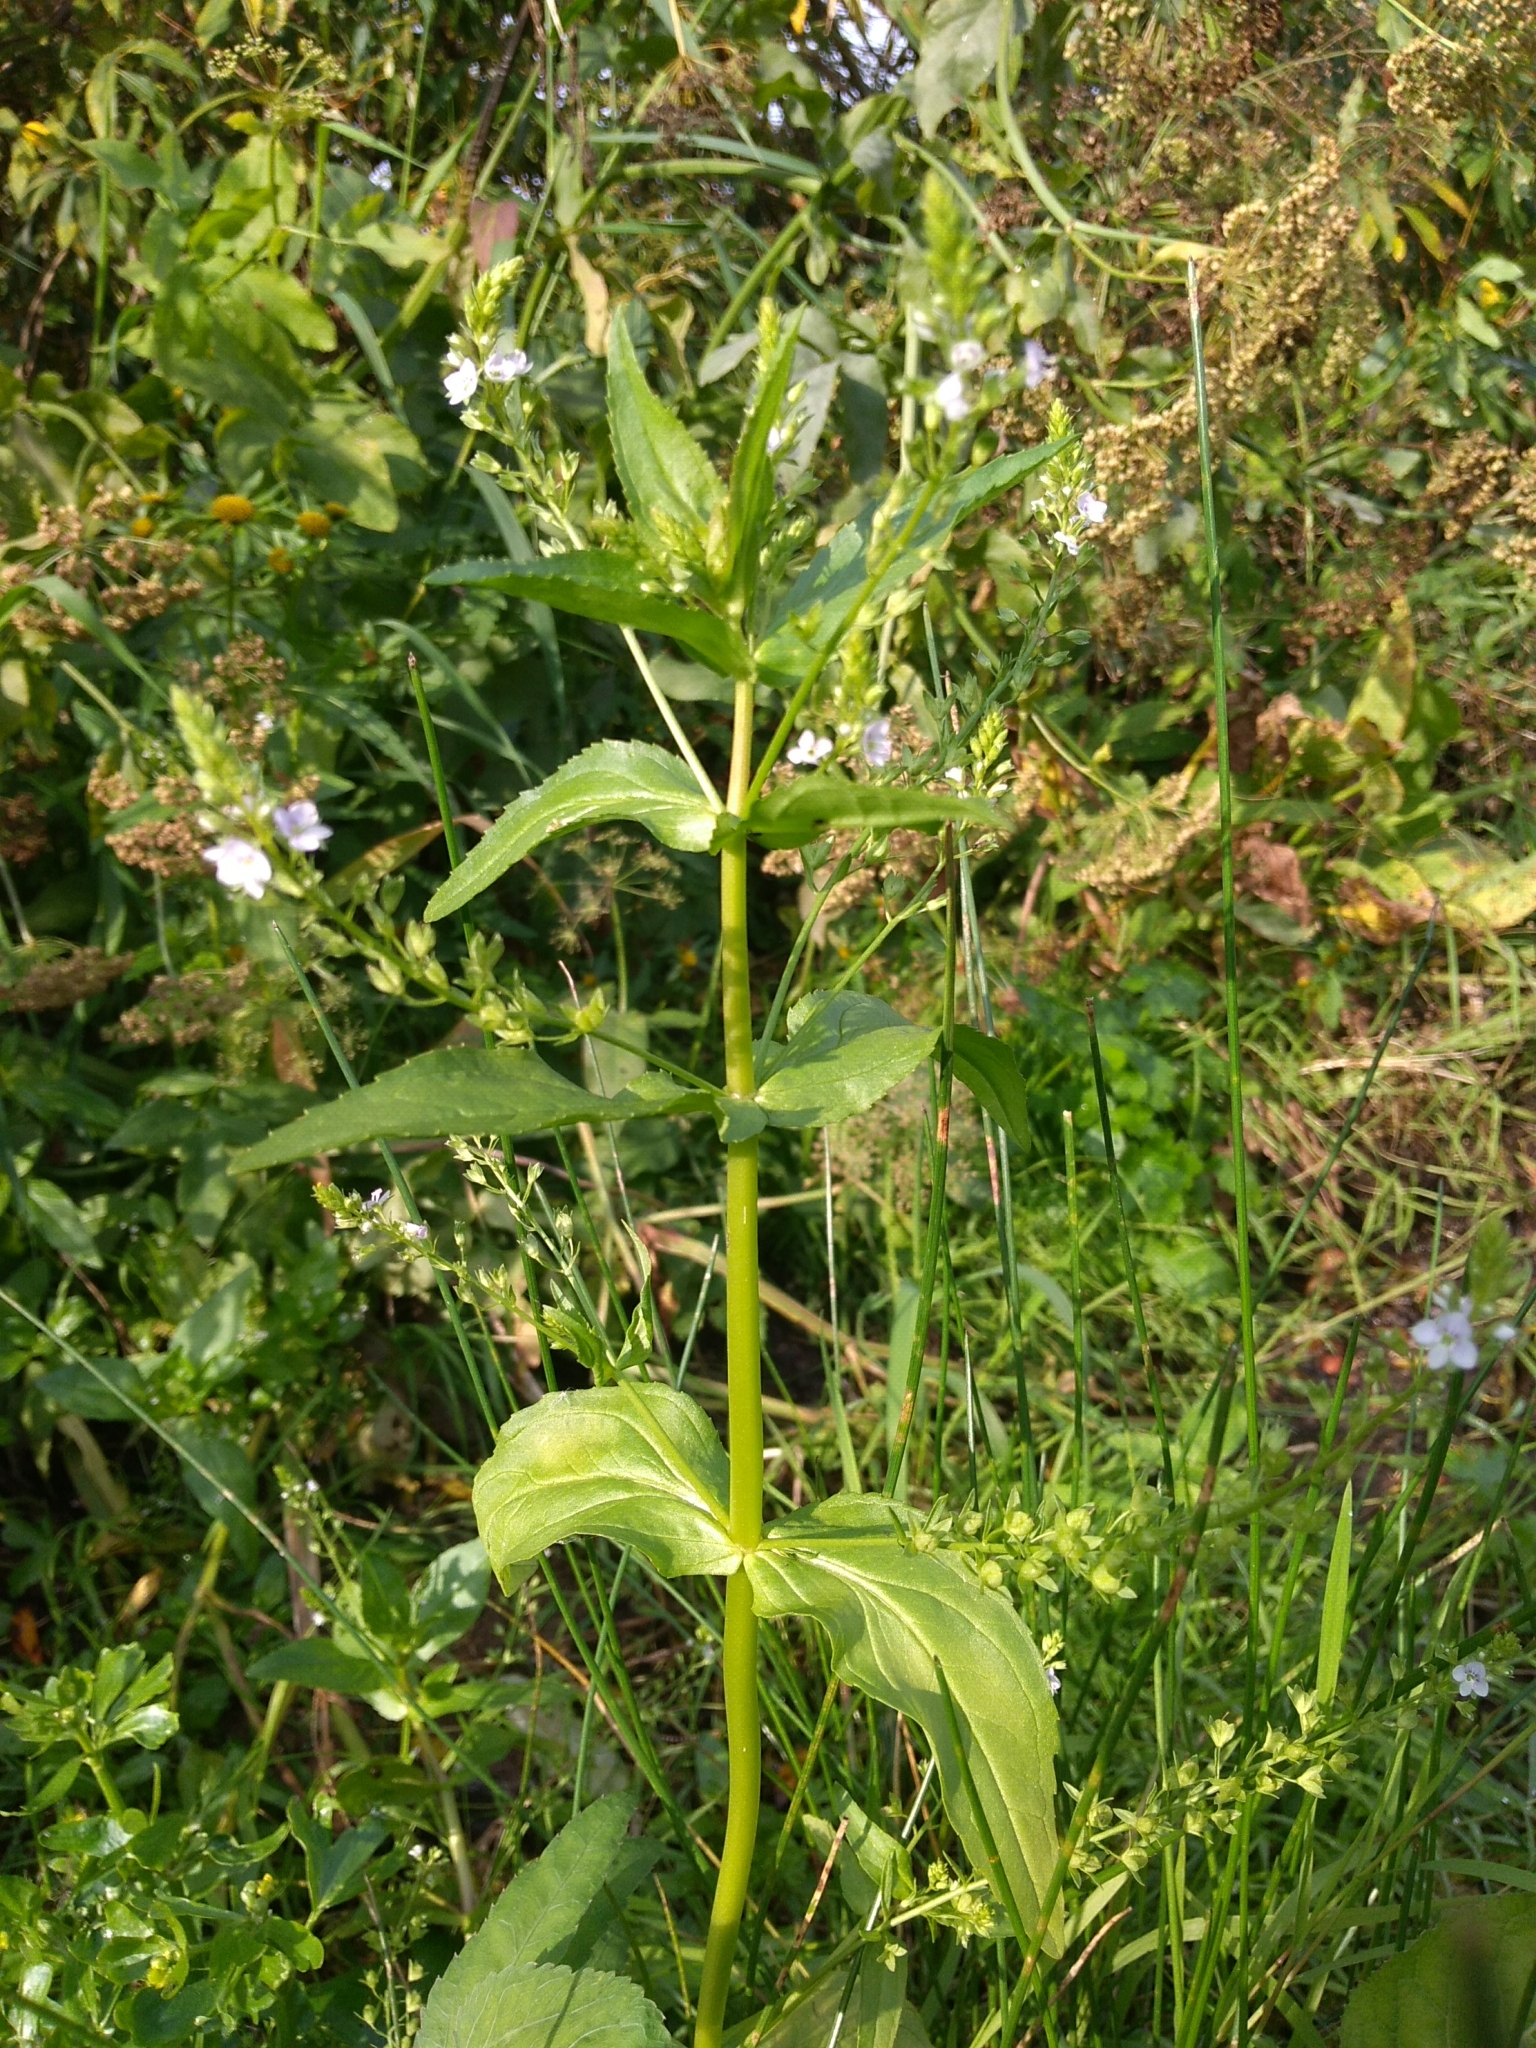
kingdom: Plantae
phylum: Tracheophyta
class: Magnoliopsida
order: Lamiales
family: Plantaginaceae
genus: Veronica
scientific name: Veronica anagallis-aquatica
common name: Water speedwell
